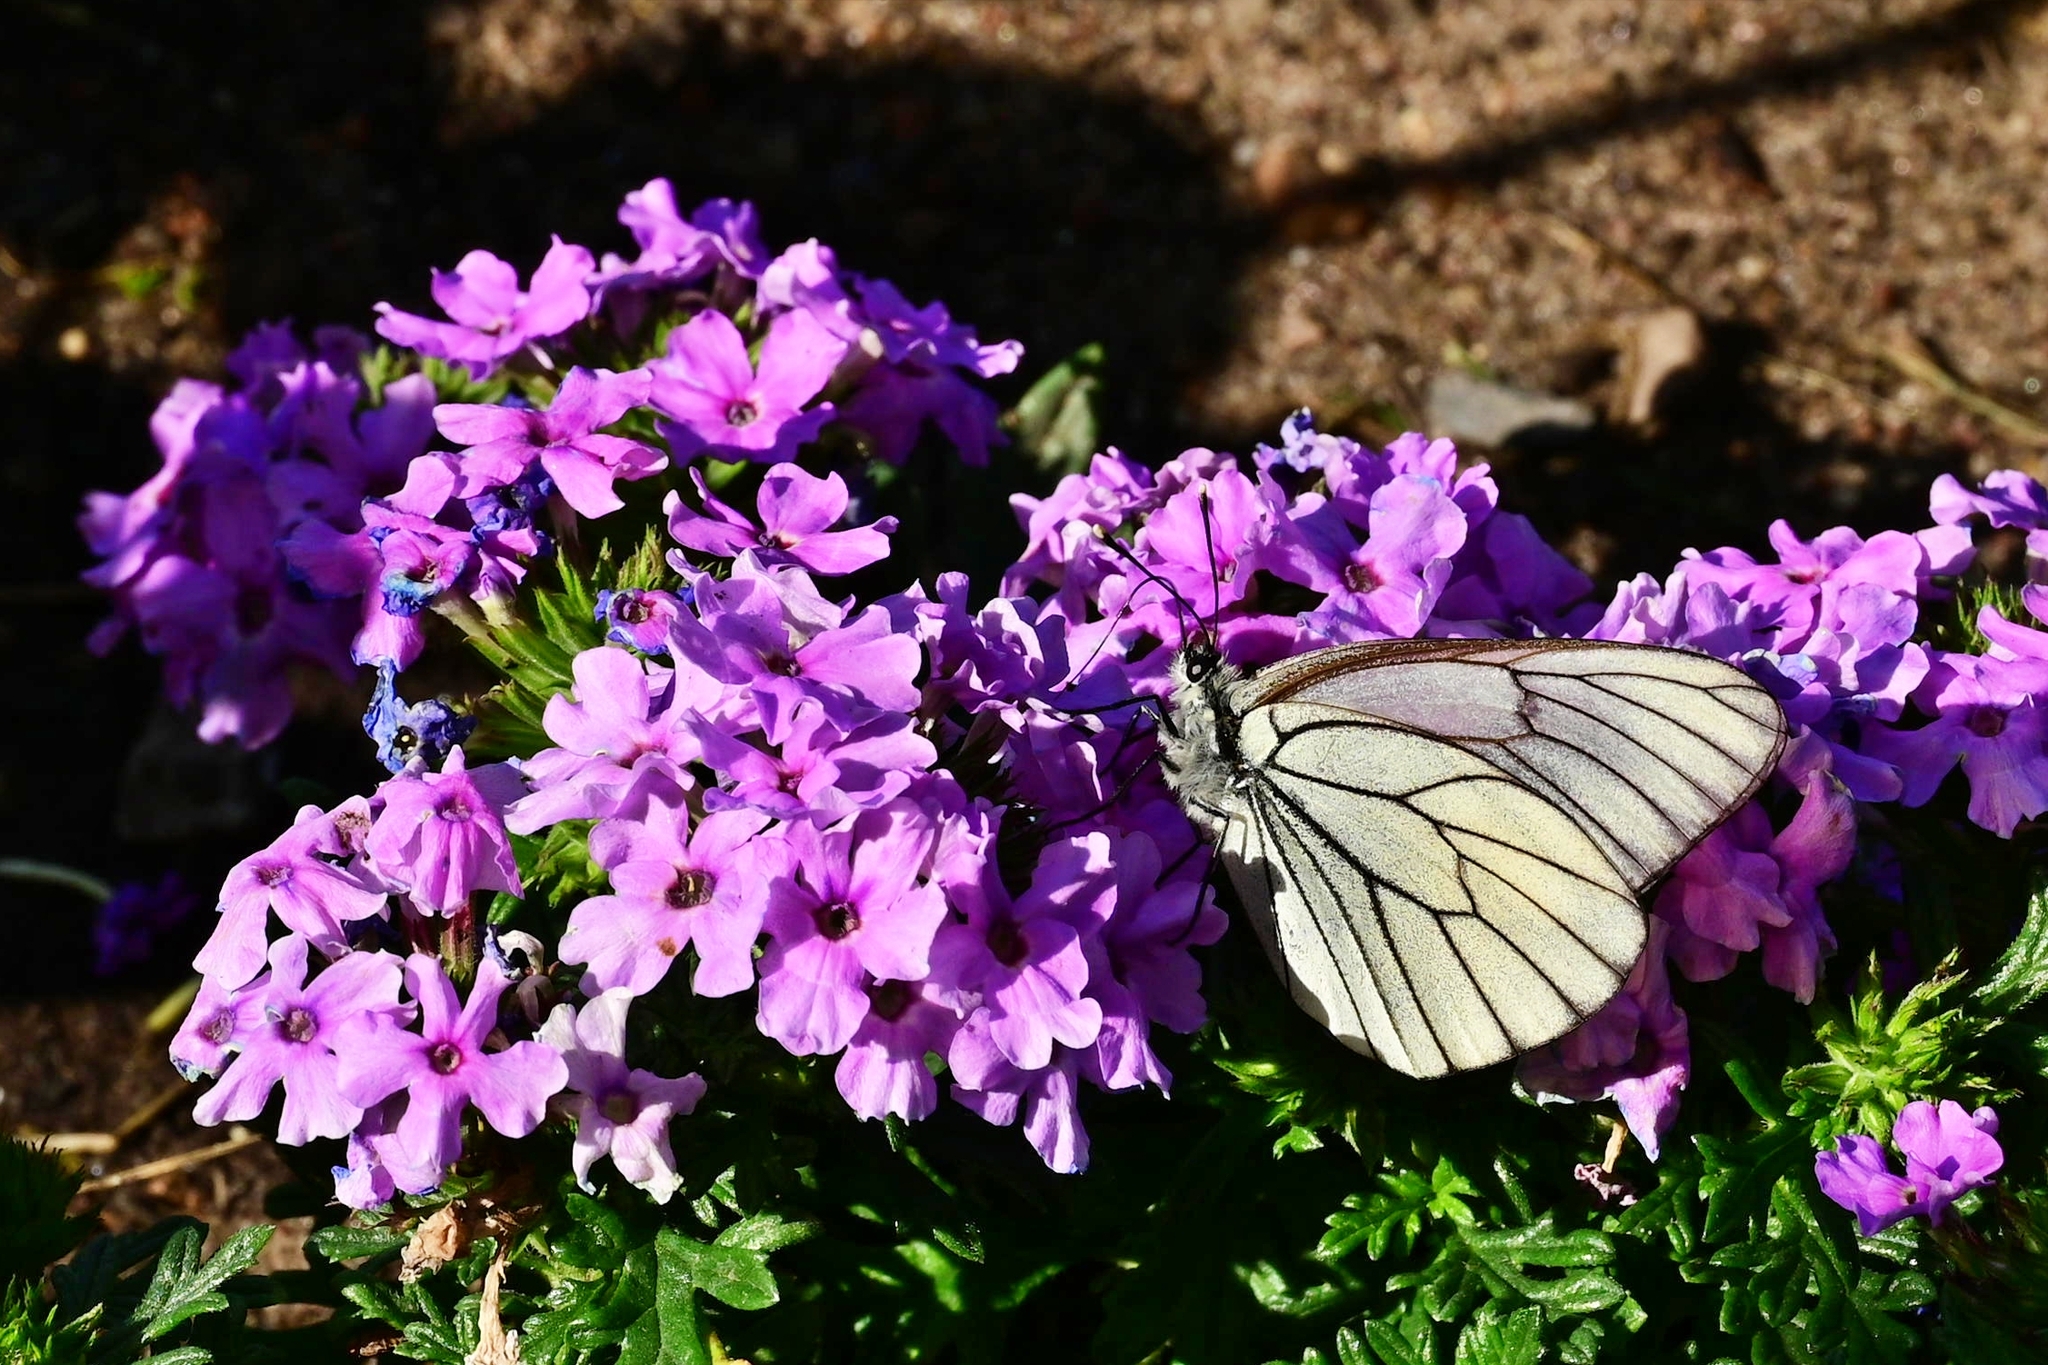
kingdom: Animalia
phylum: Arthropoda
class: Insecta
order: Lepidoptera
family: Pieridae
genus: Aporia
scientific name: Aporia crataegi
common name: Black-veined white
